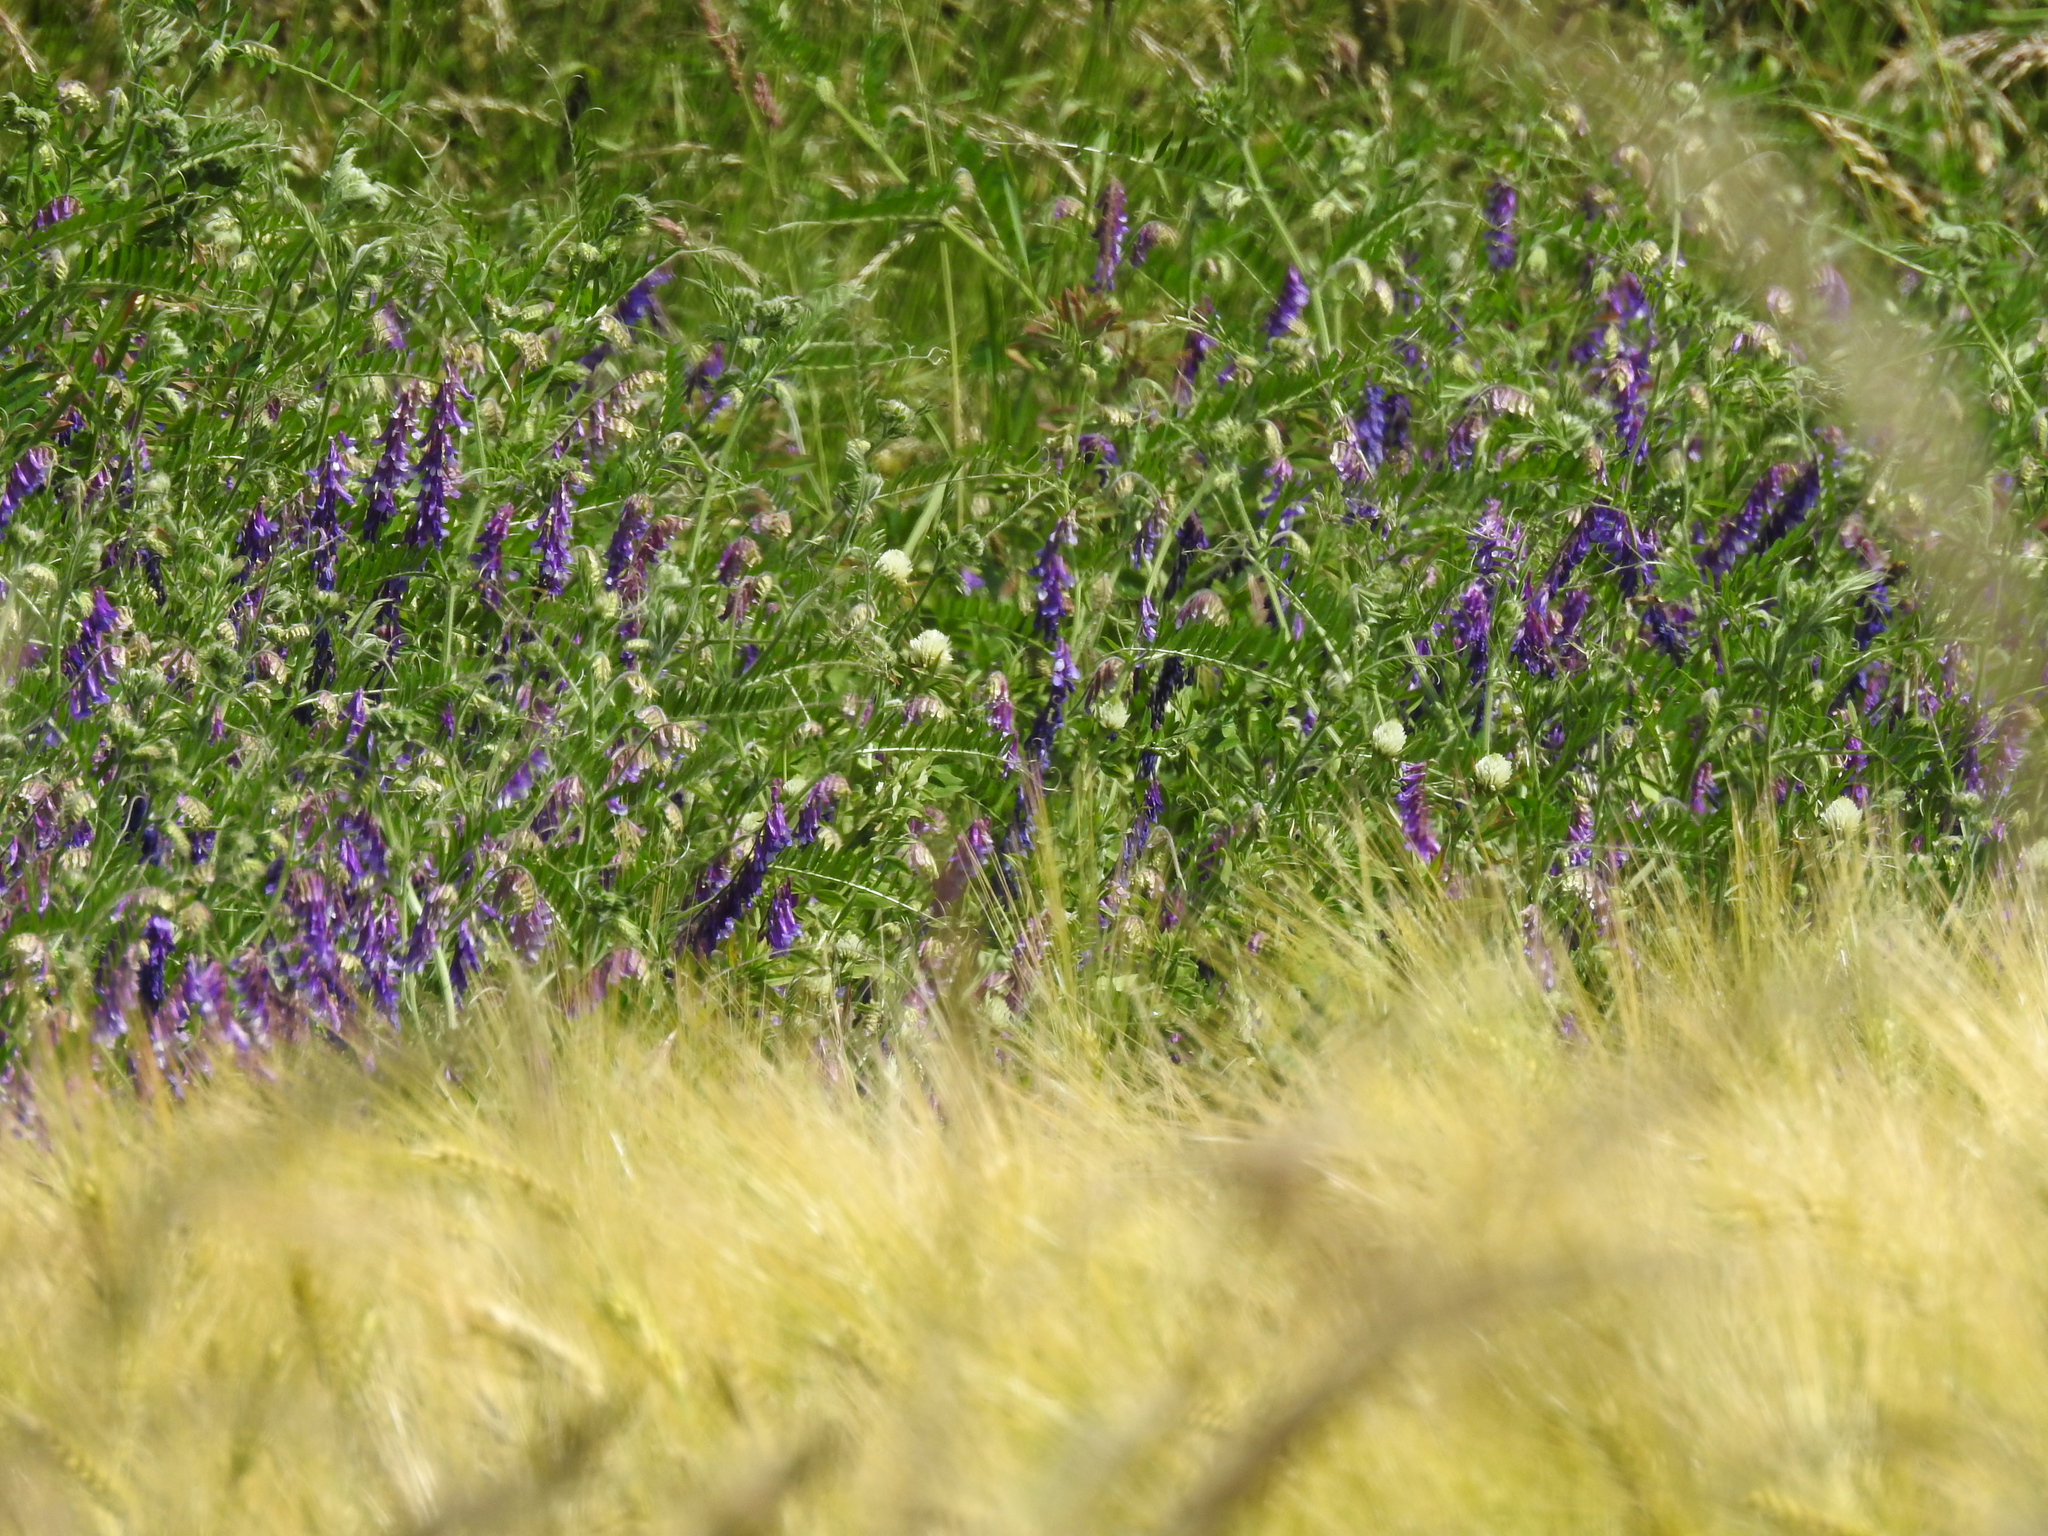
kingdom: Plantae
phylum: Tracheophyta
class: Magnoliopsida
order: Fabales
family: Fabaceae
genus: Vicia
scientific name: Vicia villosa
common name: Fodder vetch
